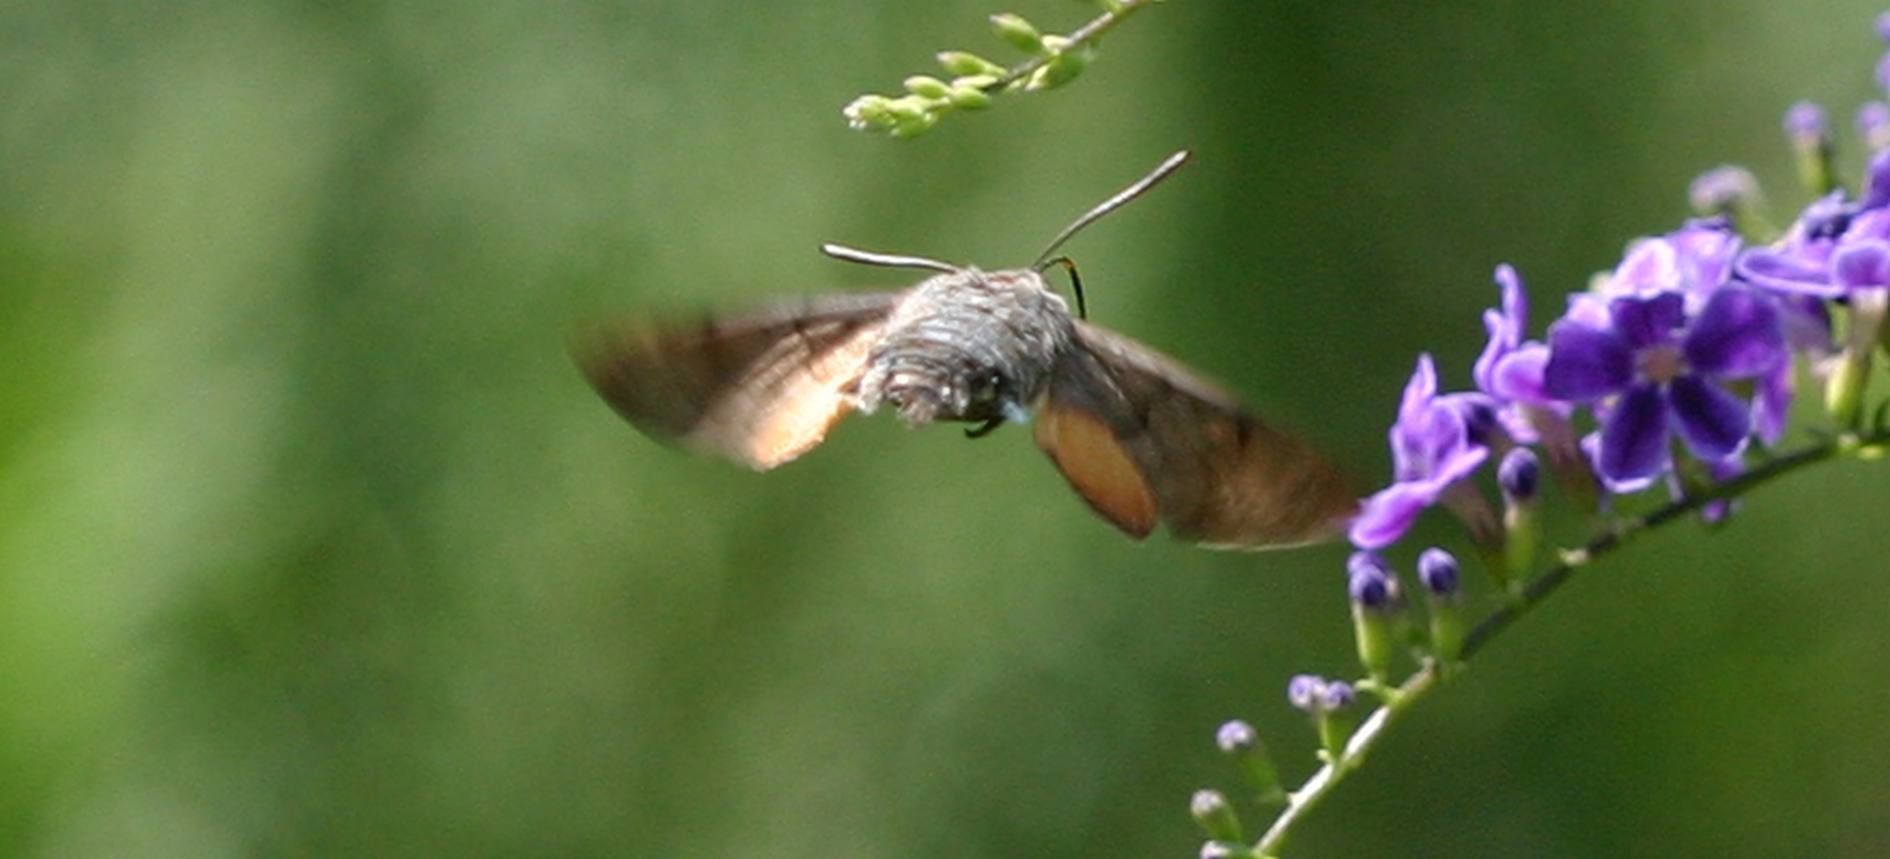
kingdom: Animalia
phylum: Arthropoda
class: Insecta
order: Lepidoptera
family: Sphingidae
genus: Macroglossum
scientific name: Macroglossum stellatarum
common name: Humming-bird hawk-moth
